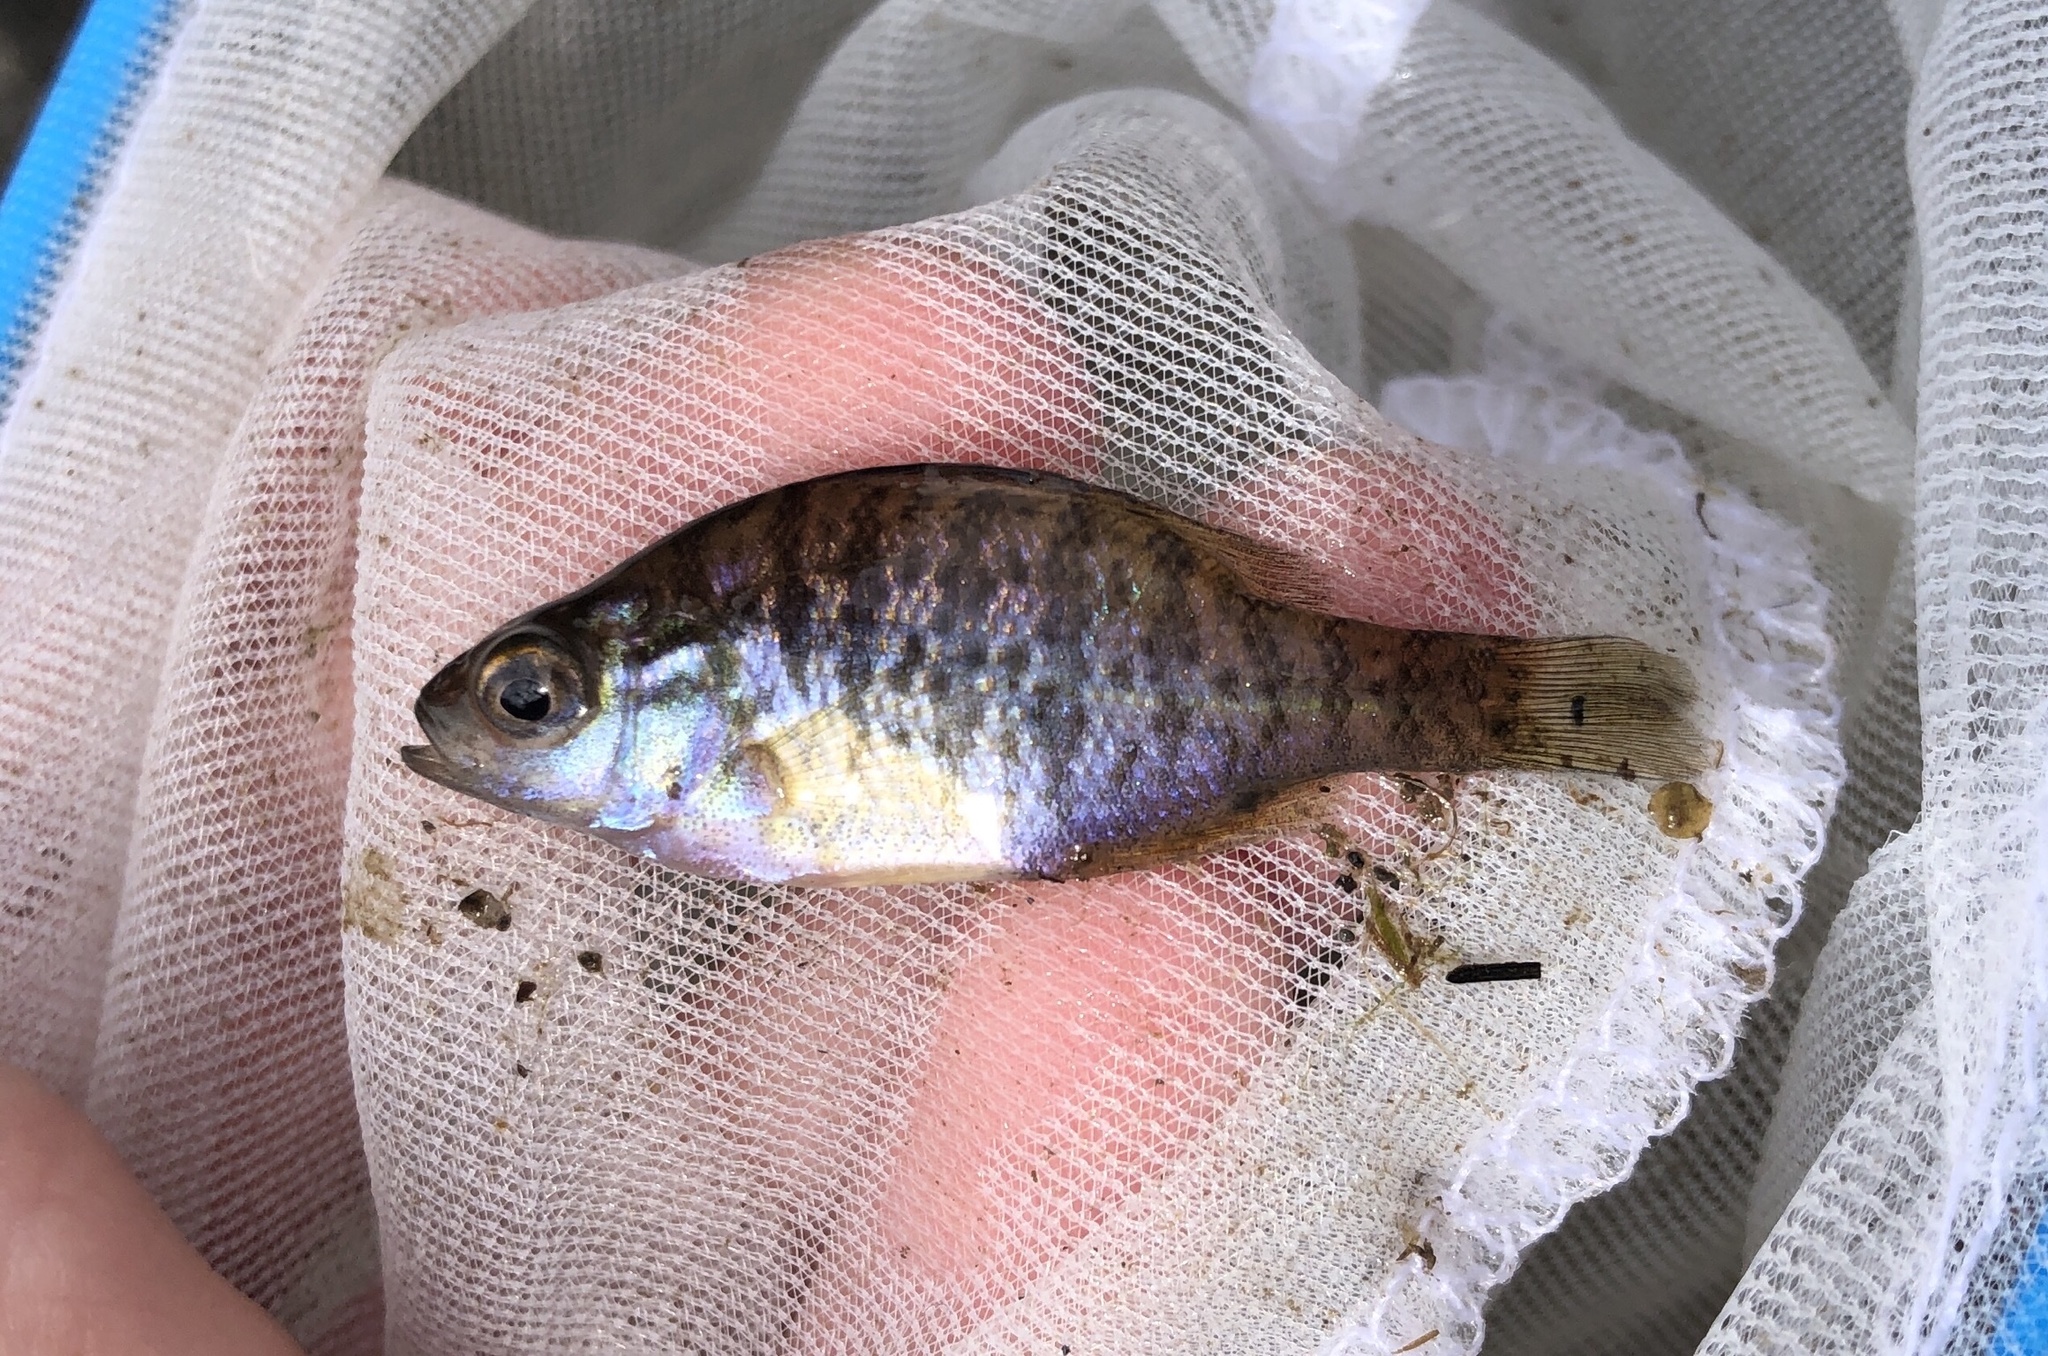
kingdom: Animalia
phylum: Chordata
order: Perciformes
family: Centrarchidae
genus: Lepomis
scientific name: Lepomis gibbosus
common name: Pumpkinseed
